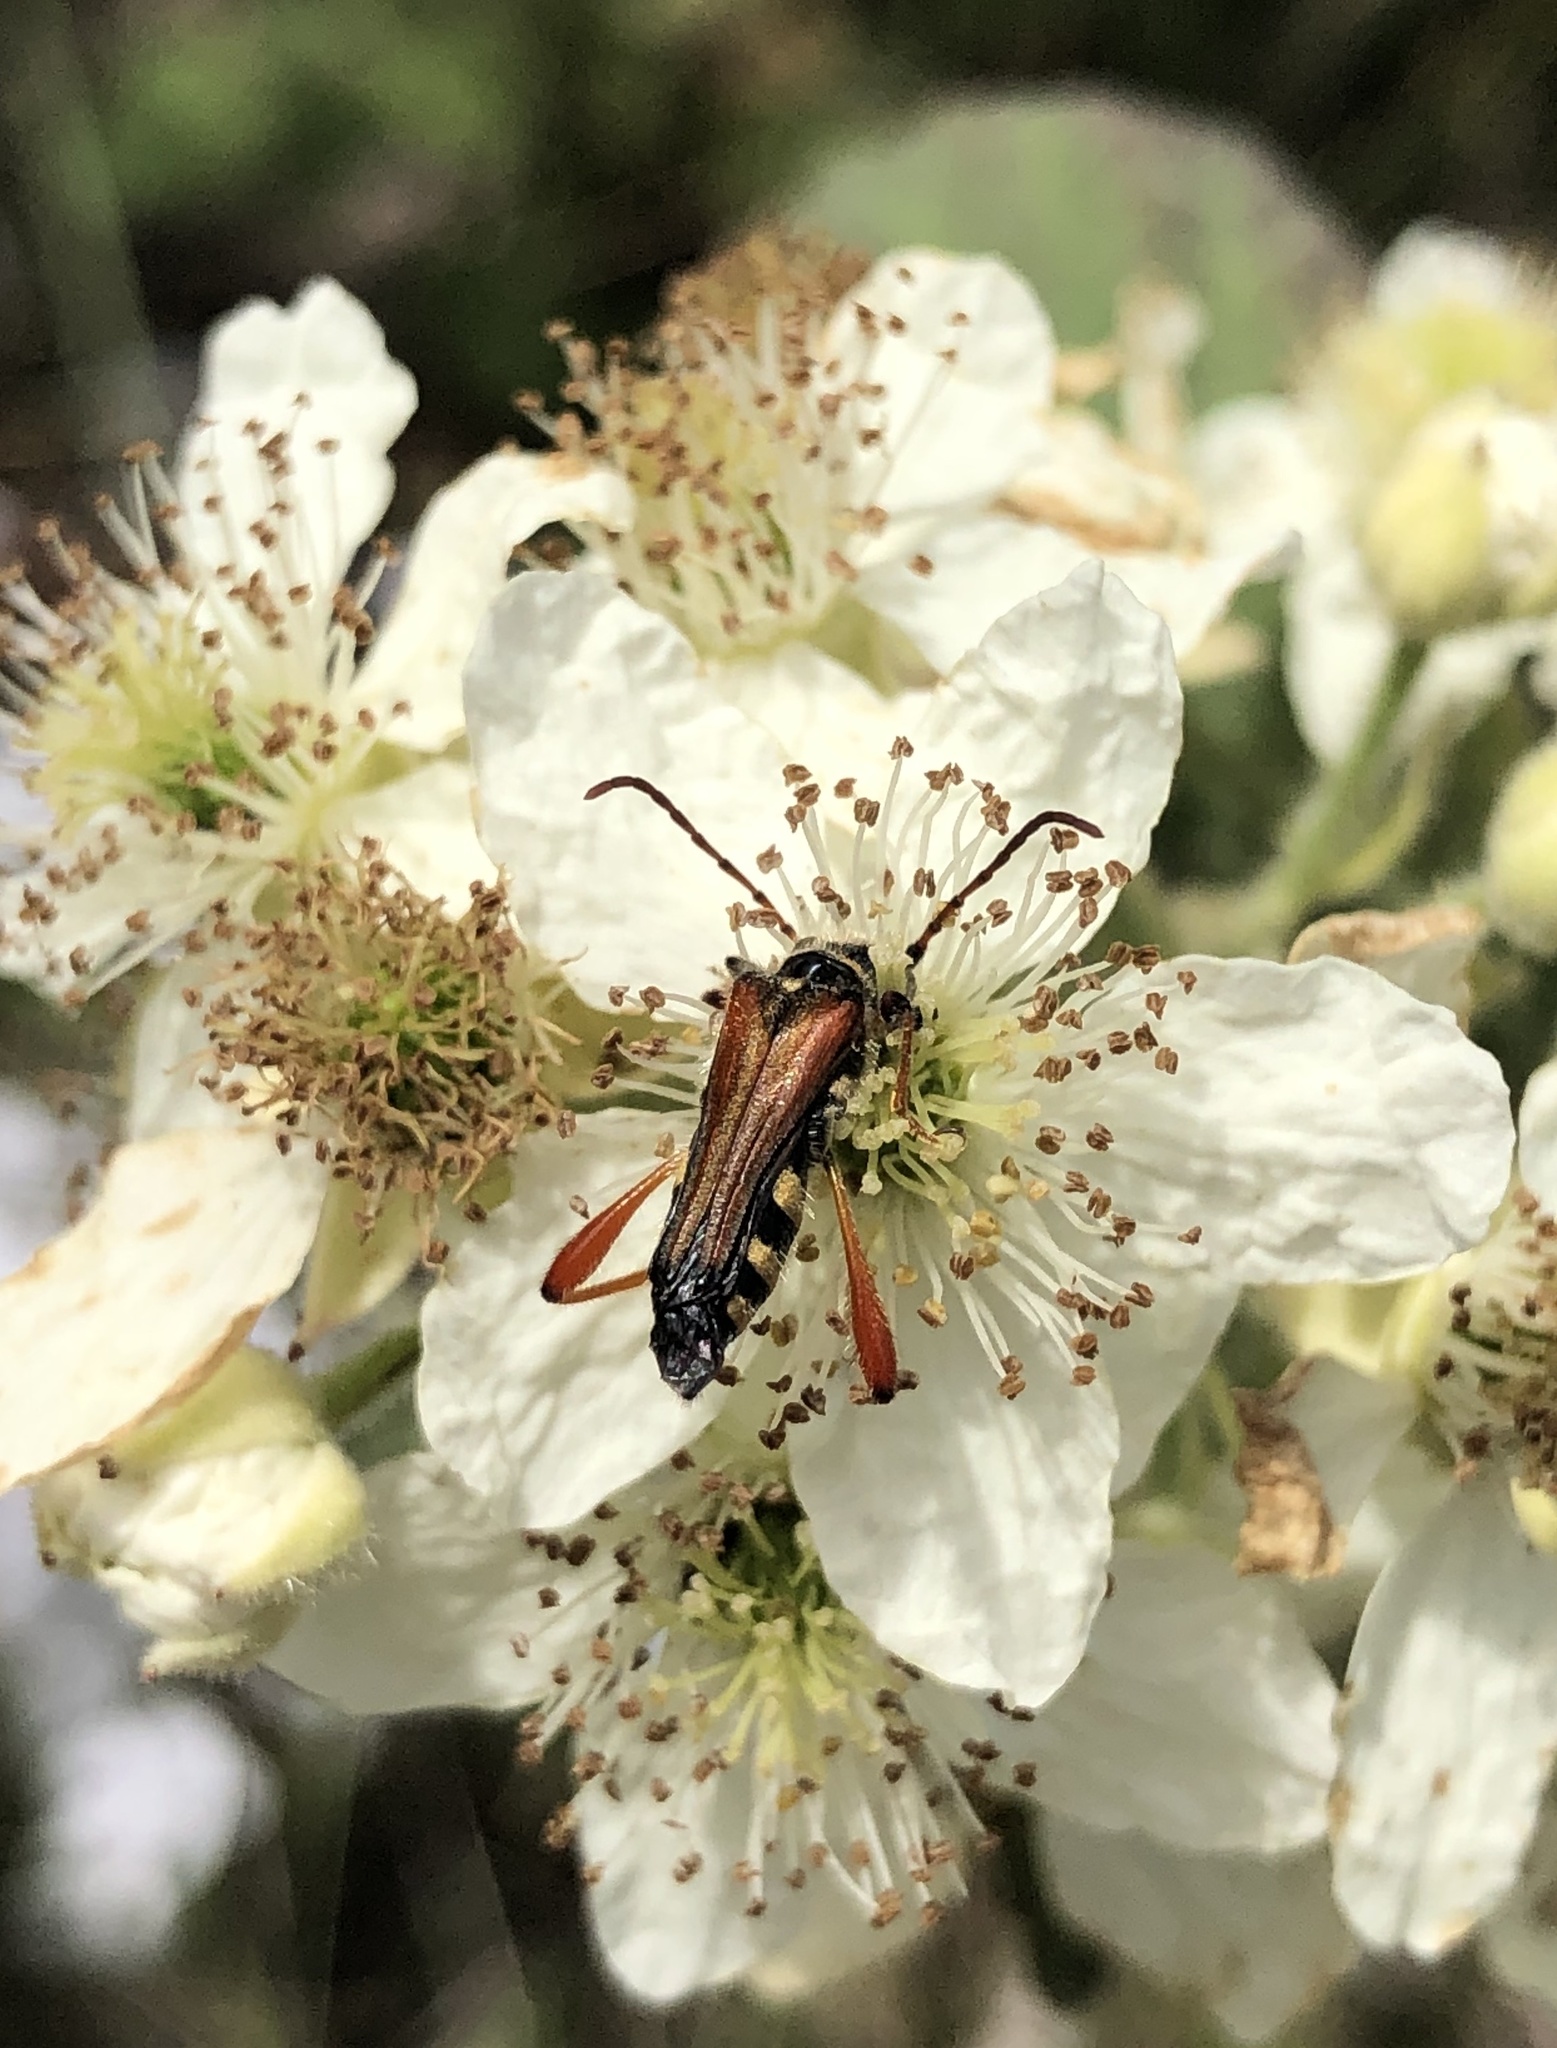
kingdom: Animalia
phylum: Arthropoda
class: Insecta
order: Coleoptera
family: Cerambycidae
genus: Stenopterus
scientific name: Stenopterus rufus
